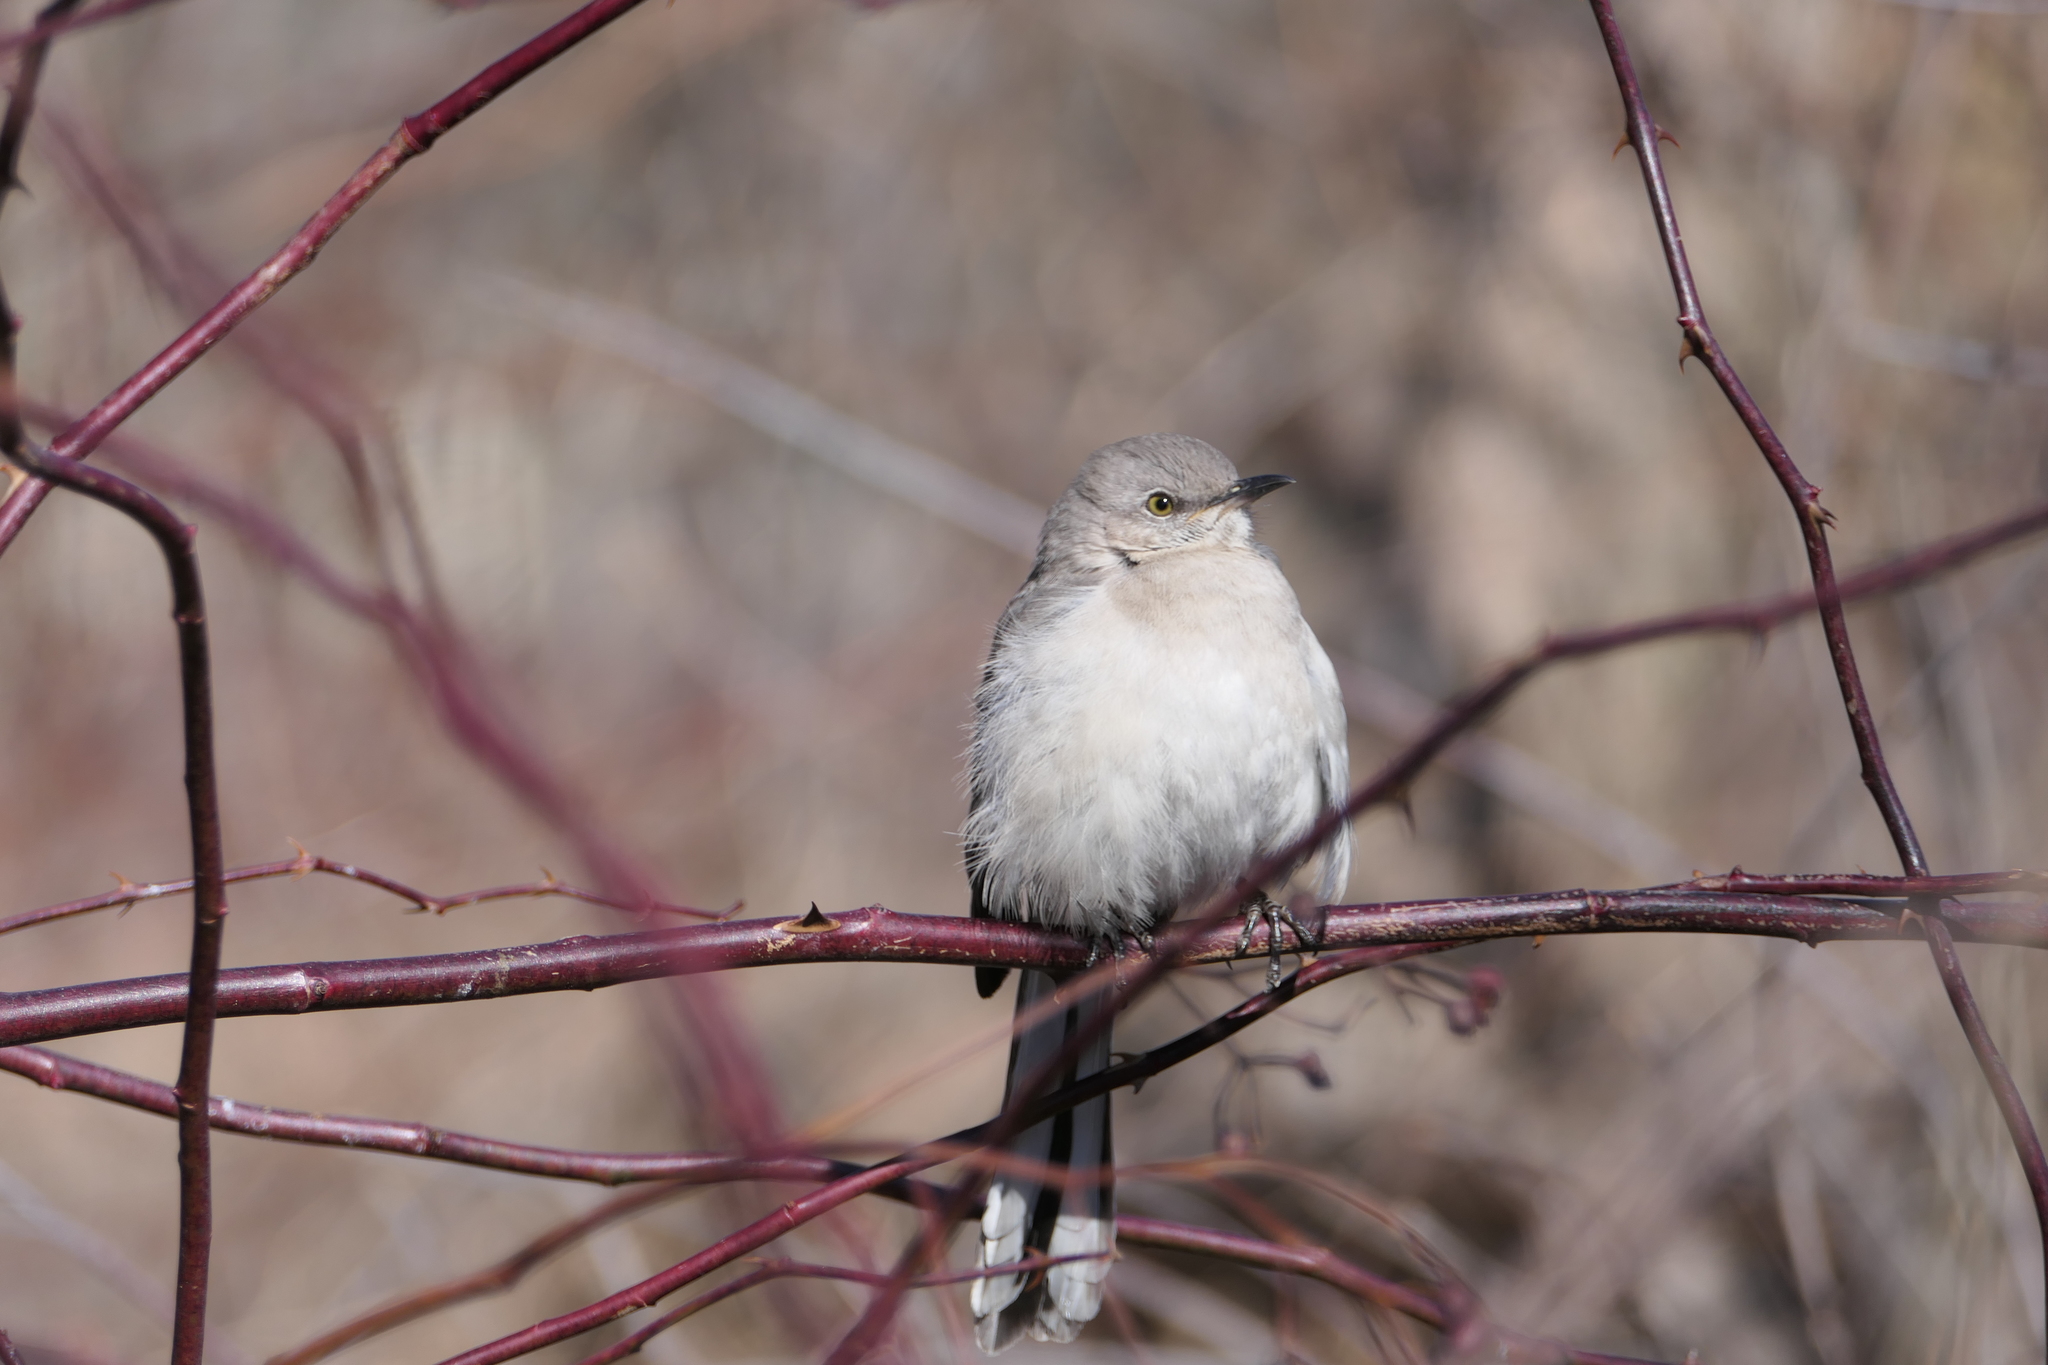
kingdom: Animalia
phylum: Chordata
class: Aves
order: Passeriformes
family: Mimidae
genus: Mimus
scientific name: Mimus polyglottos
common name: Northern mockingbird
